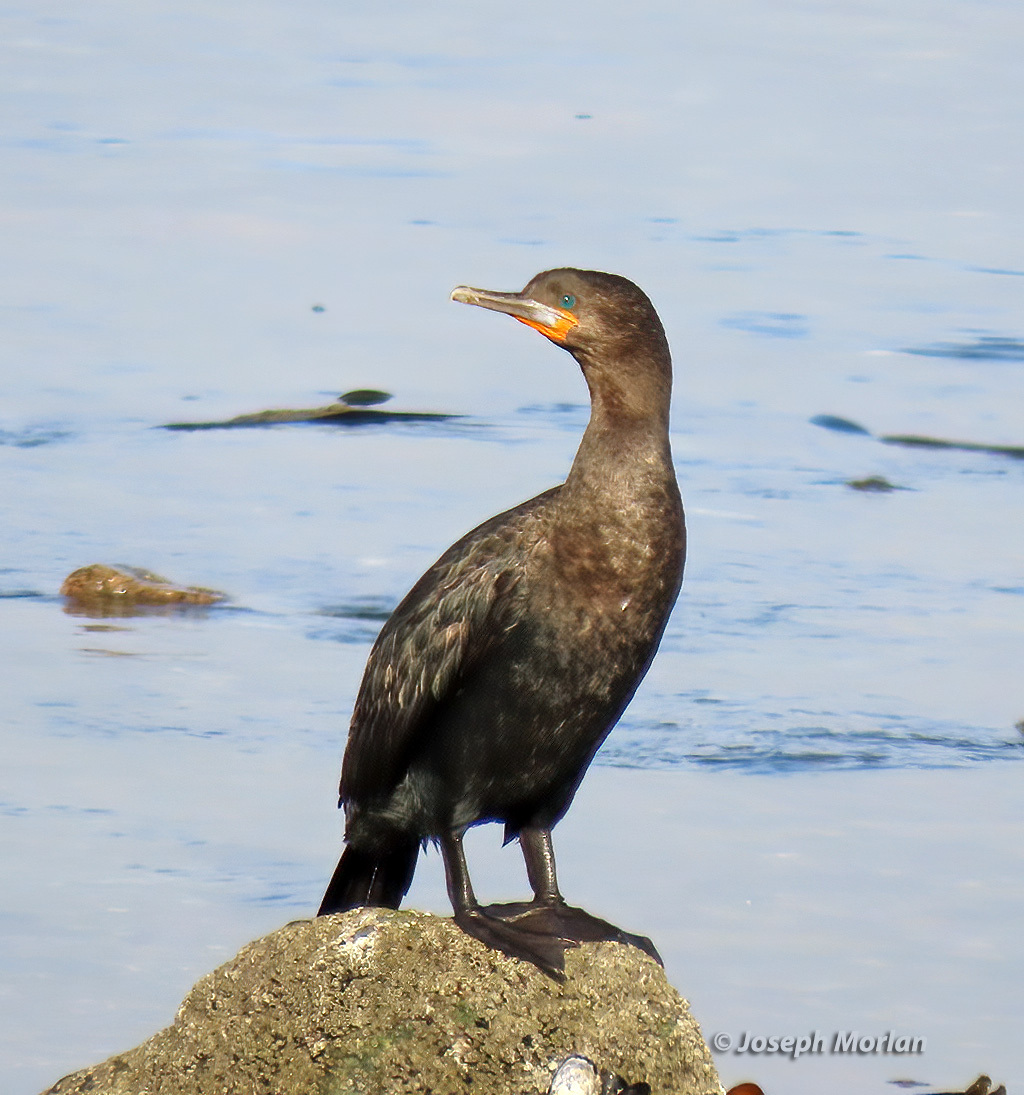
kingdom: Animalia
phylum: Chordata
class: Aves
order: Suliformes
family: Phalacrocoracidae
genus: Phalacrocorax
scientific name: Phalacrocorax capensis
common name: Cape cormorant
